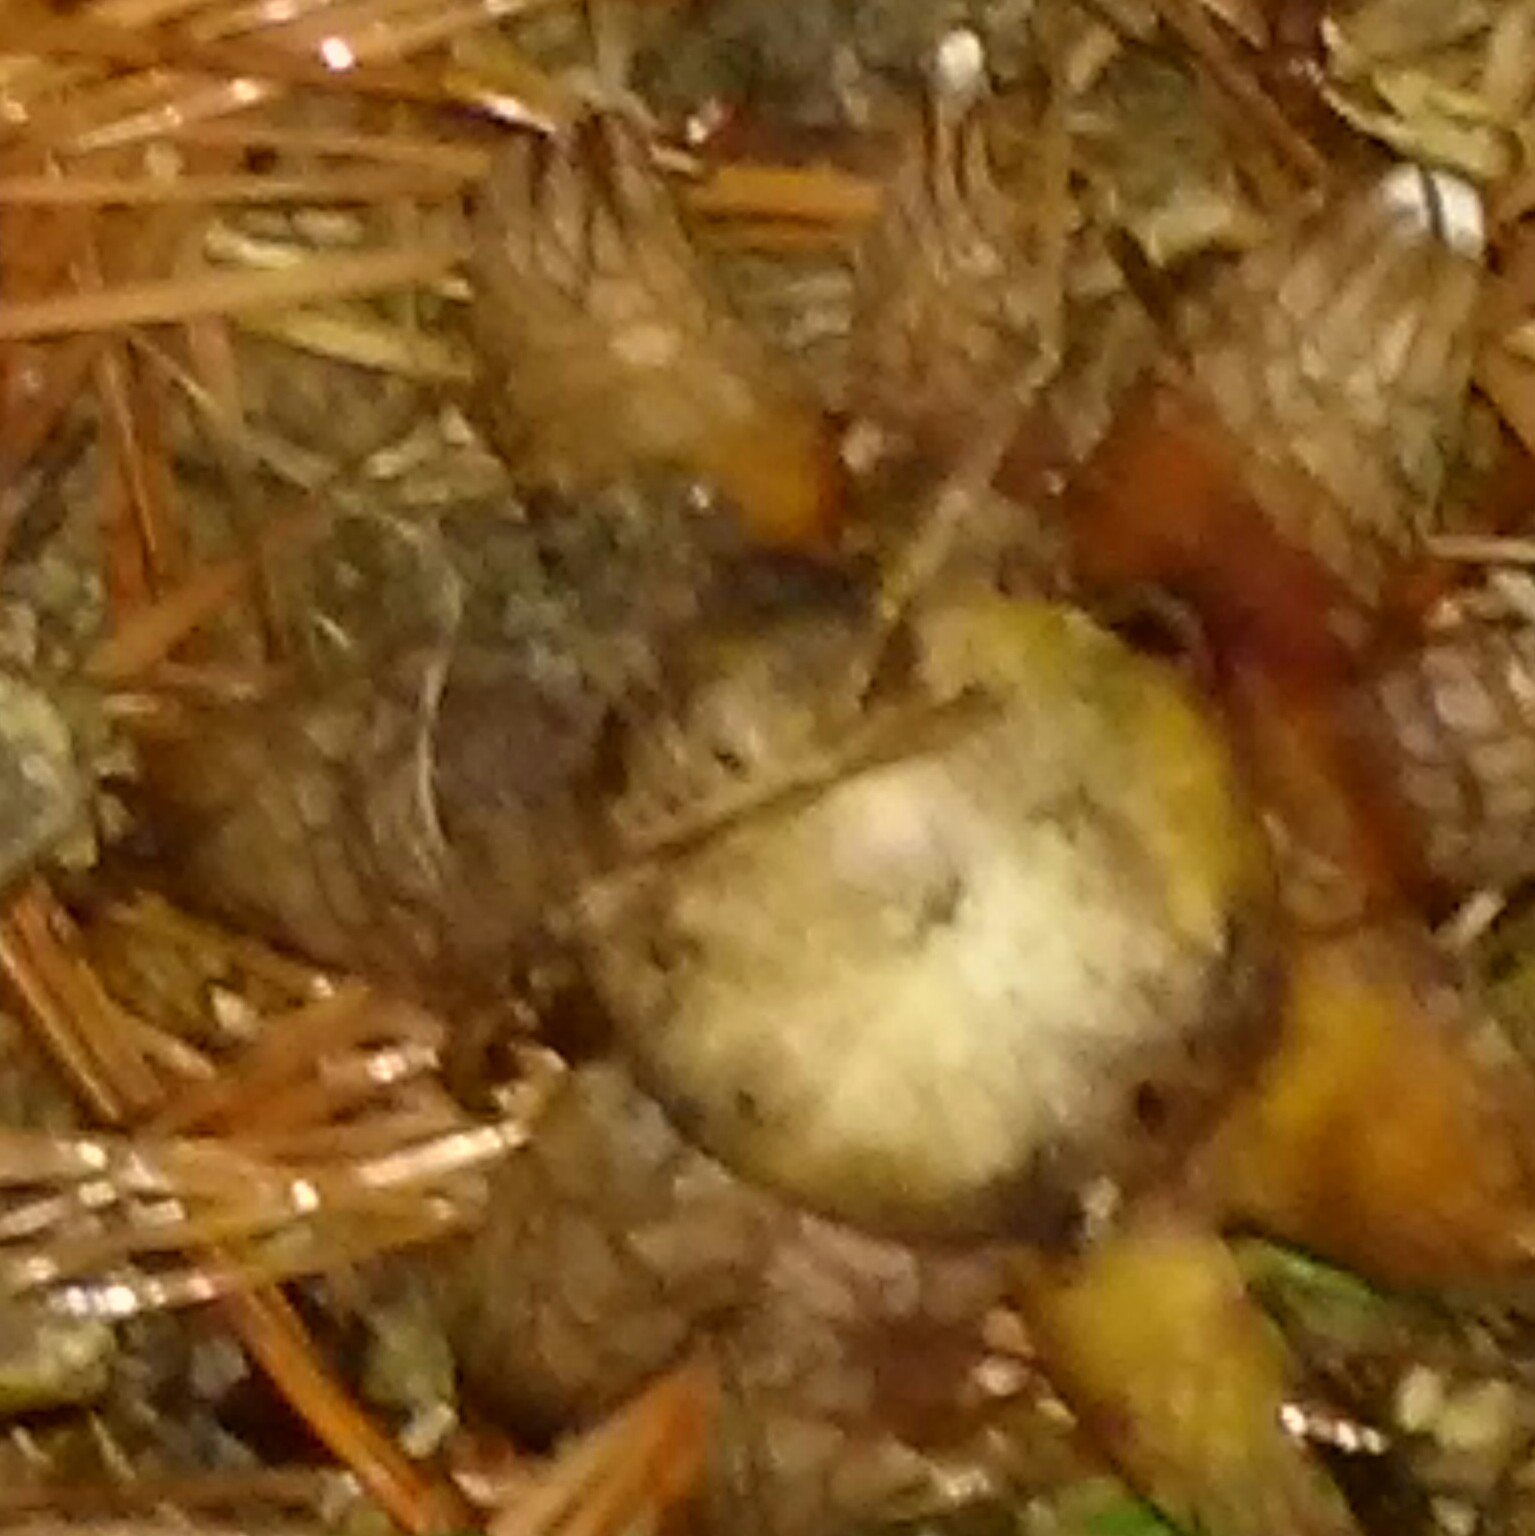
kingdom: Fungi
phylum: Basidiomycota
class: Agaricomycetes
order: Boletales
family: Diplocystidiaceae
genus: Astraeus
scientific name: Astraeus hygrometricus
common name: Barometer earthstar
